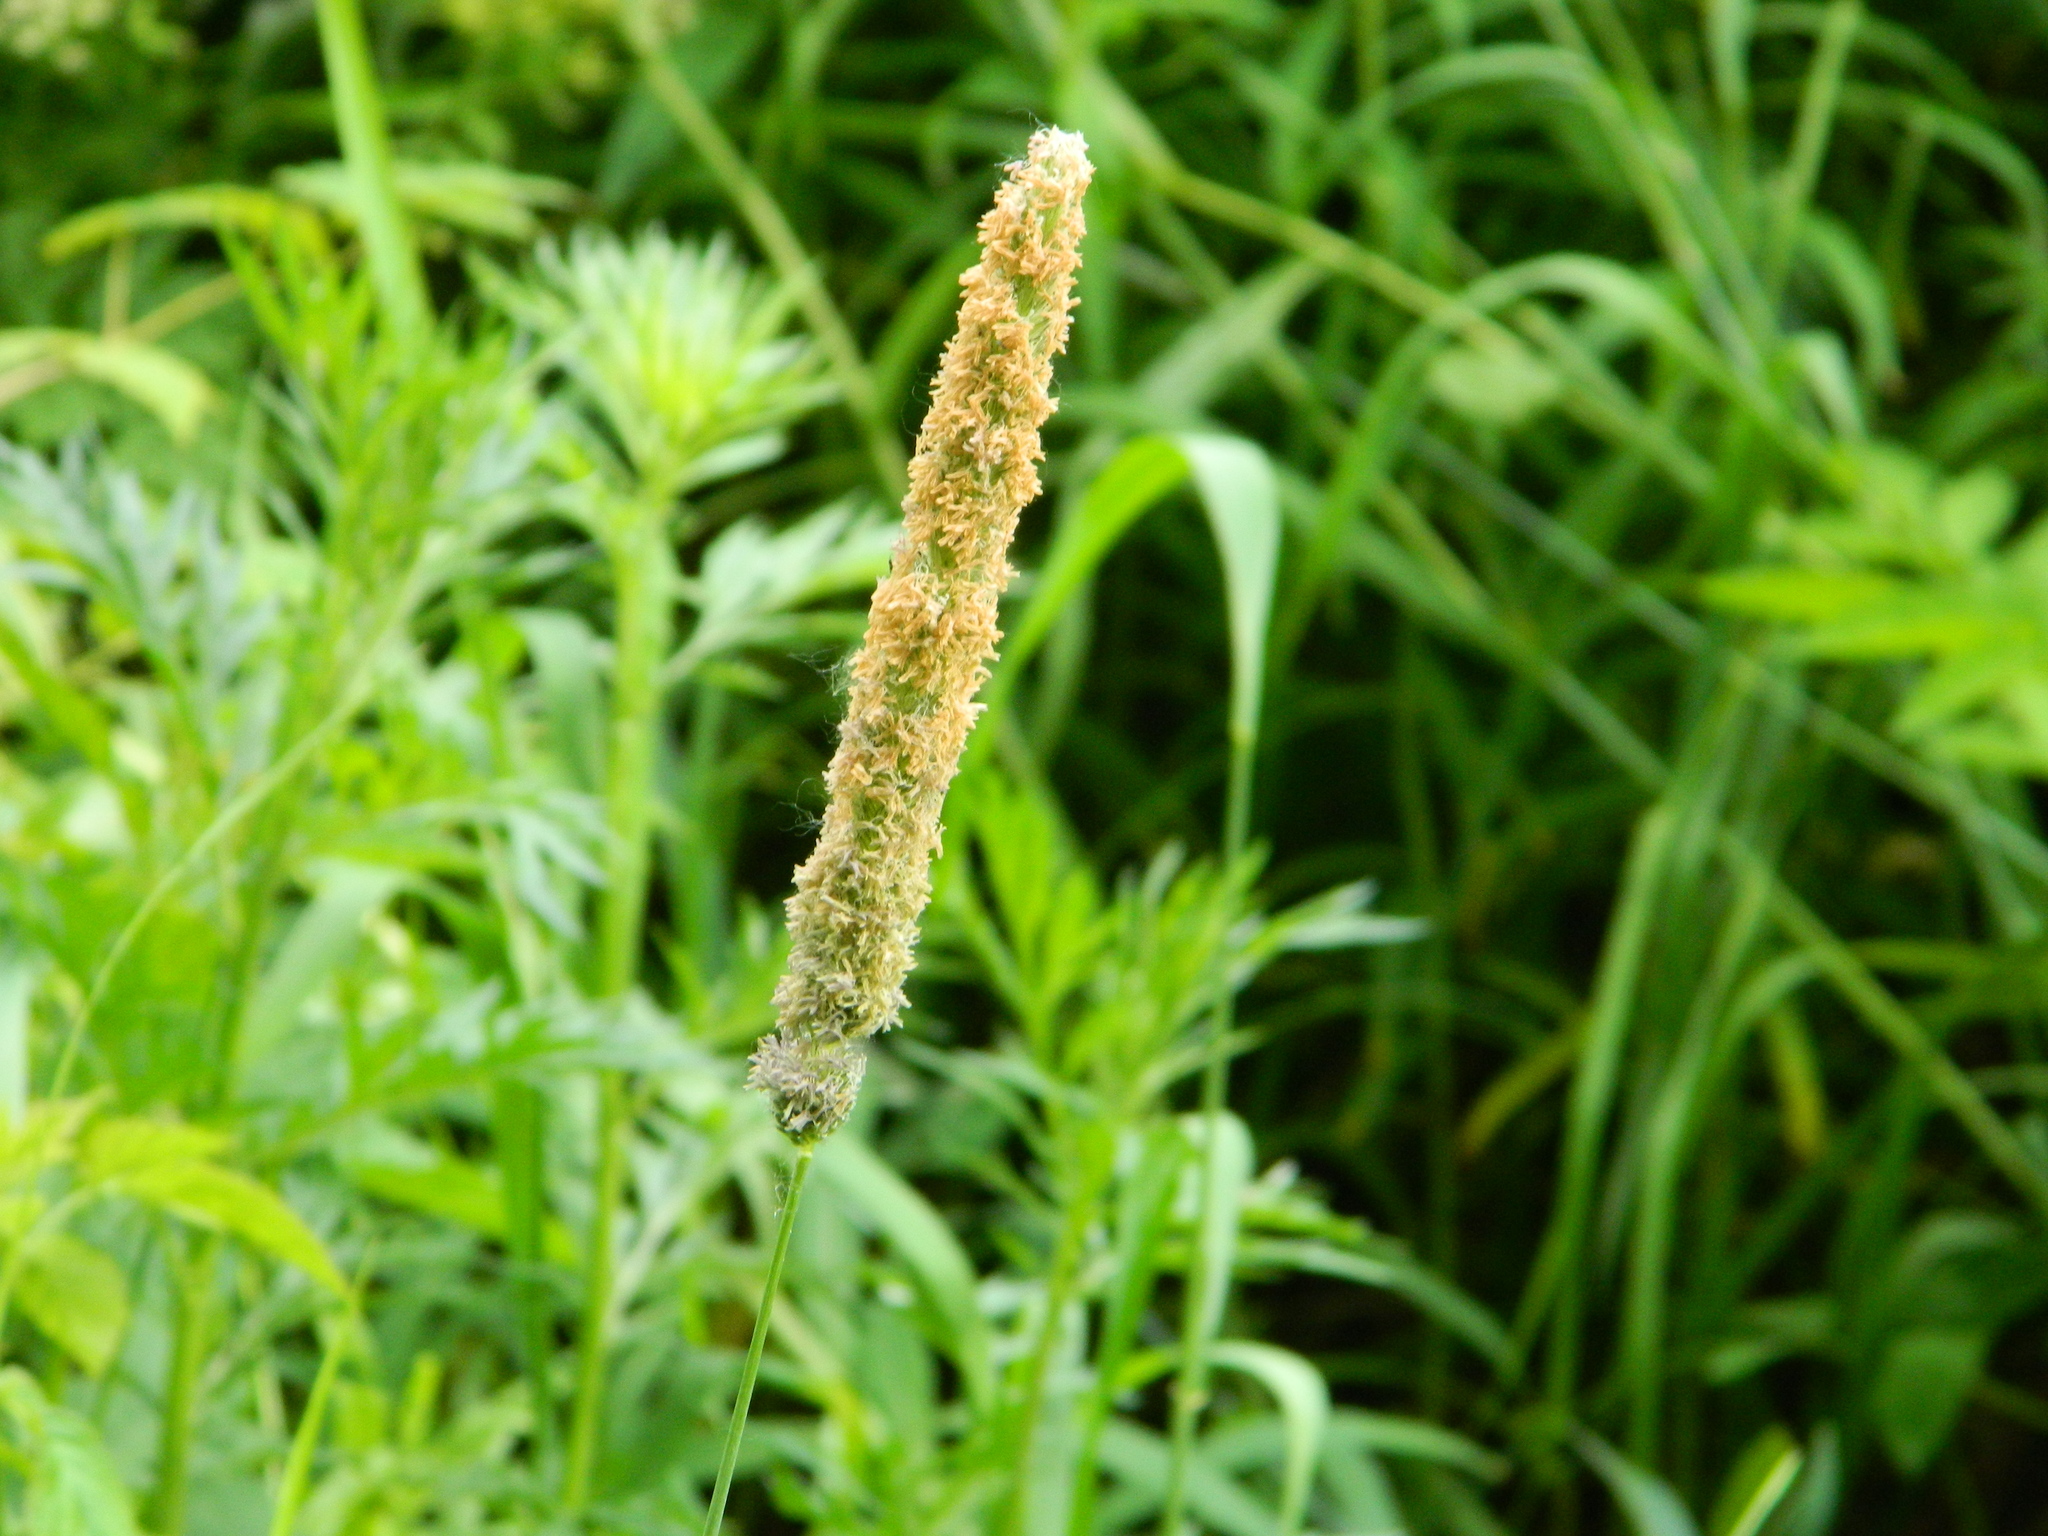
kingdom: Plantae
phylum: Tracheophyta
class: Liliopsida
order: Poales
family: Poaceae
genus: Alopecurus
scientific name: Alopecurus pratensis
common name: Meadow foxtail
